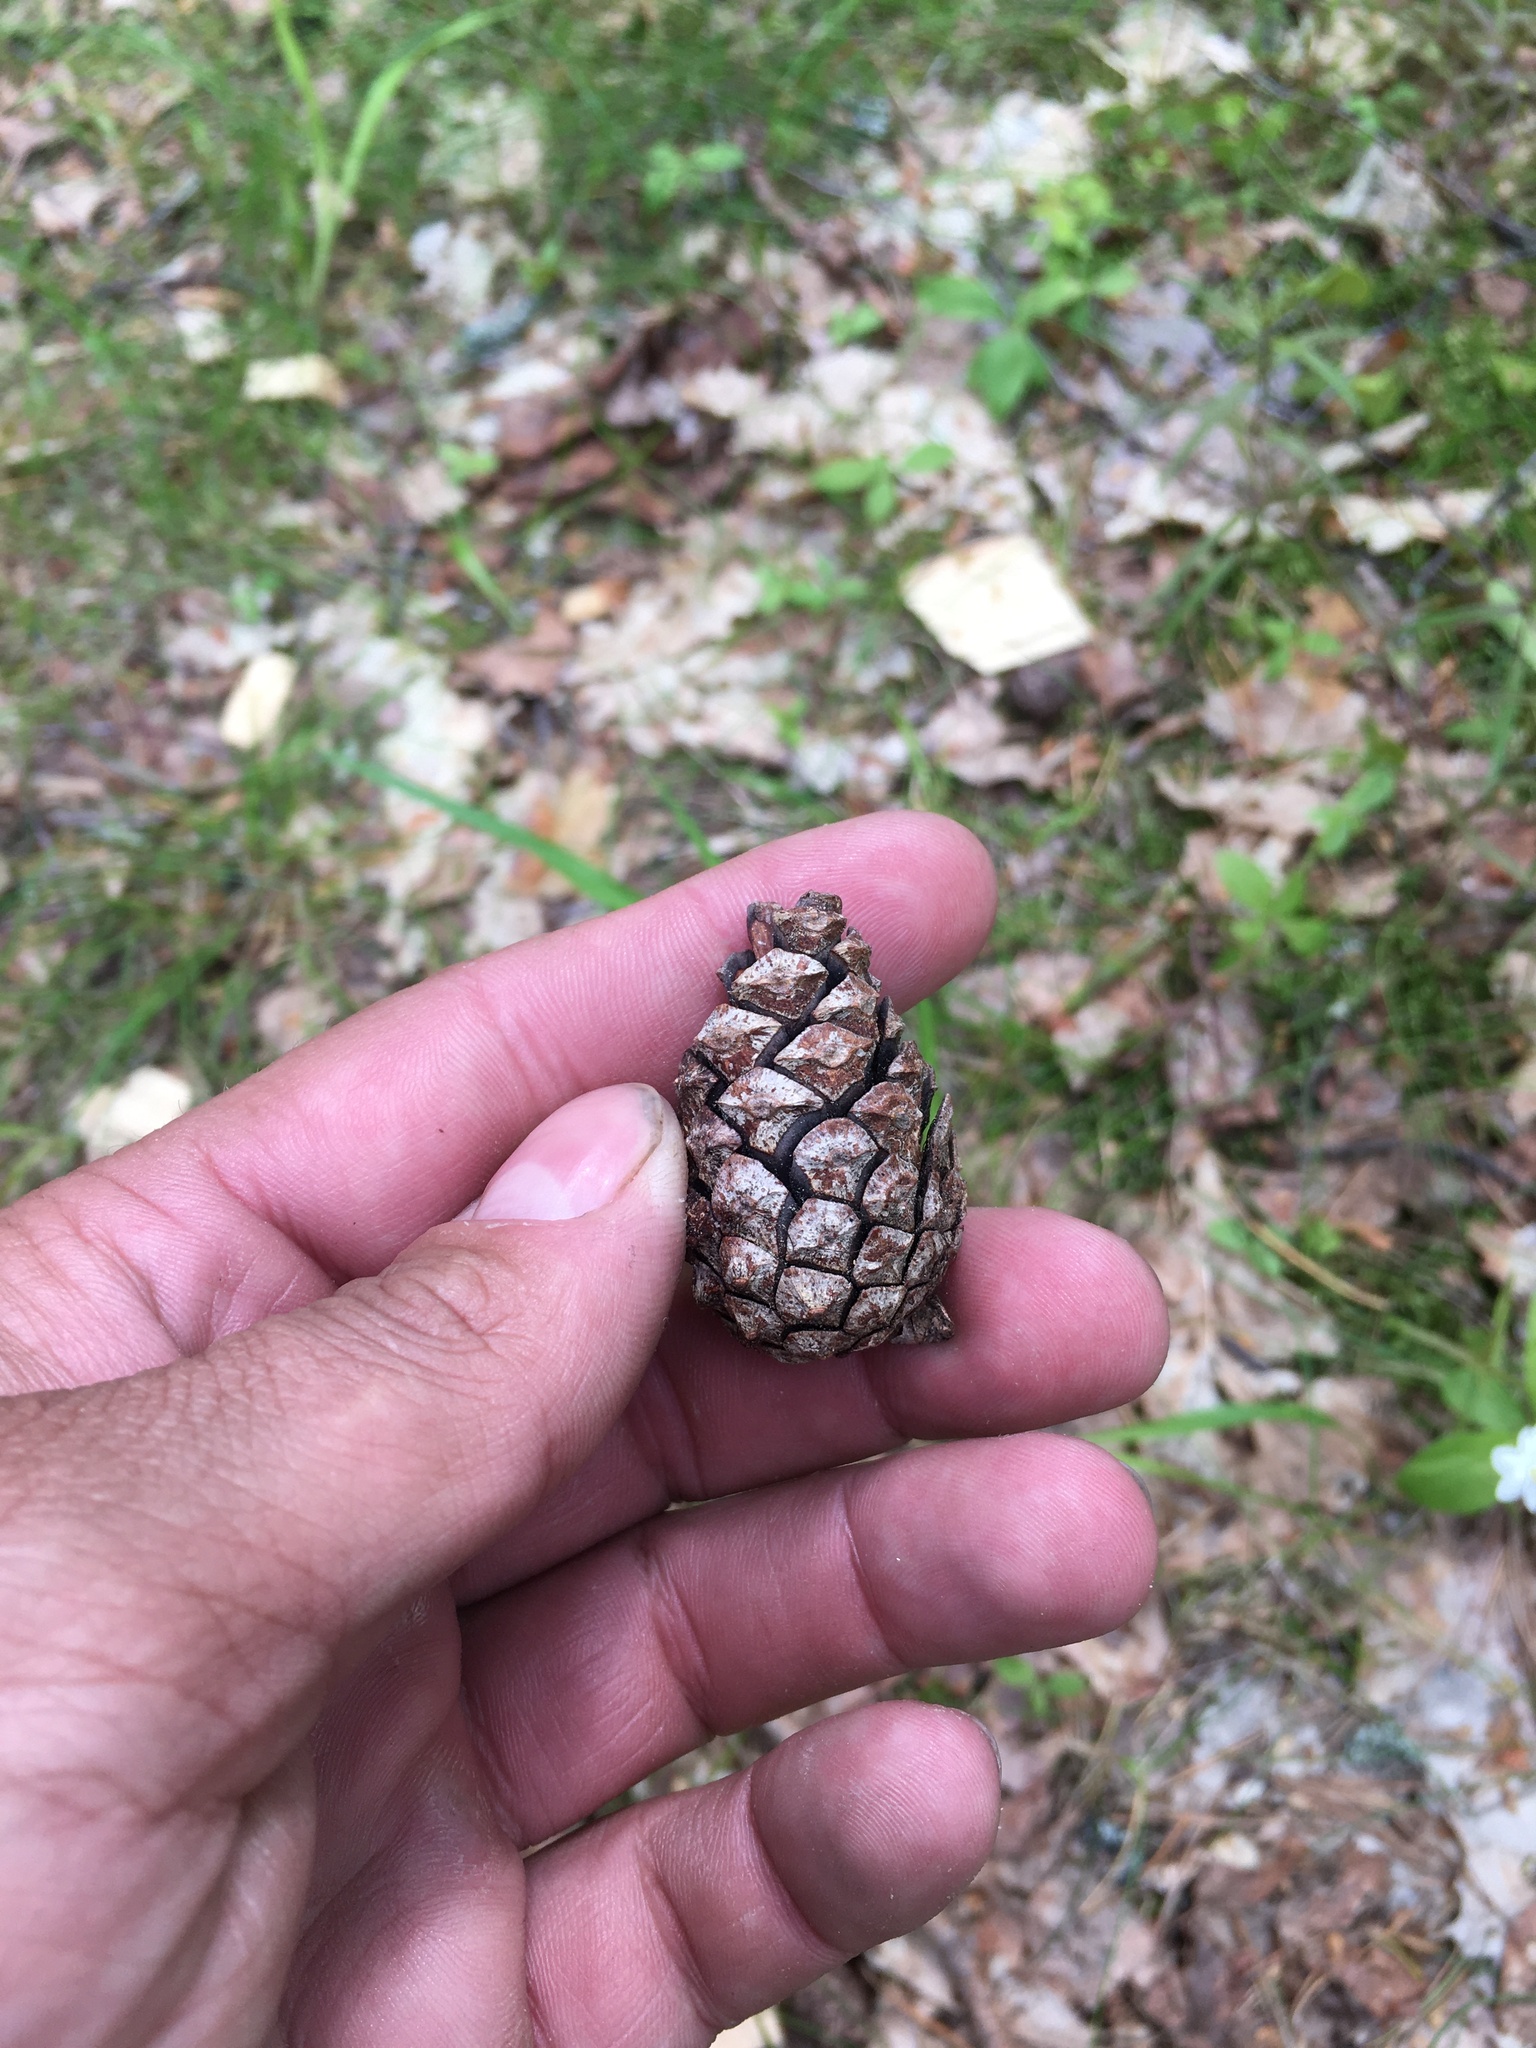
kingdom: Plantae
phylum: Tracheophyta
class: Pinopsida
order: Pinales
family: Pinaceae
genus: Pinus
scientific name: Pinus sylvestris
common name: Scots pine
